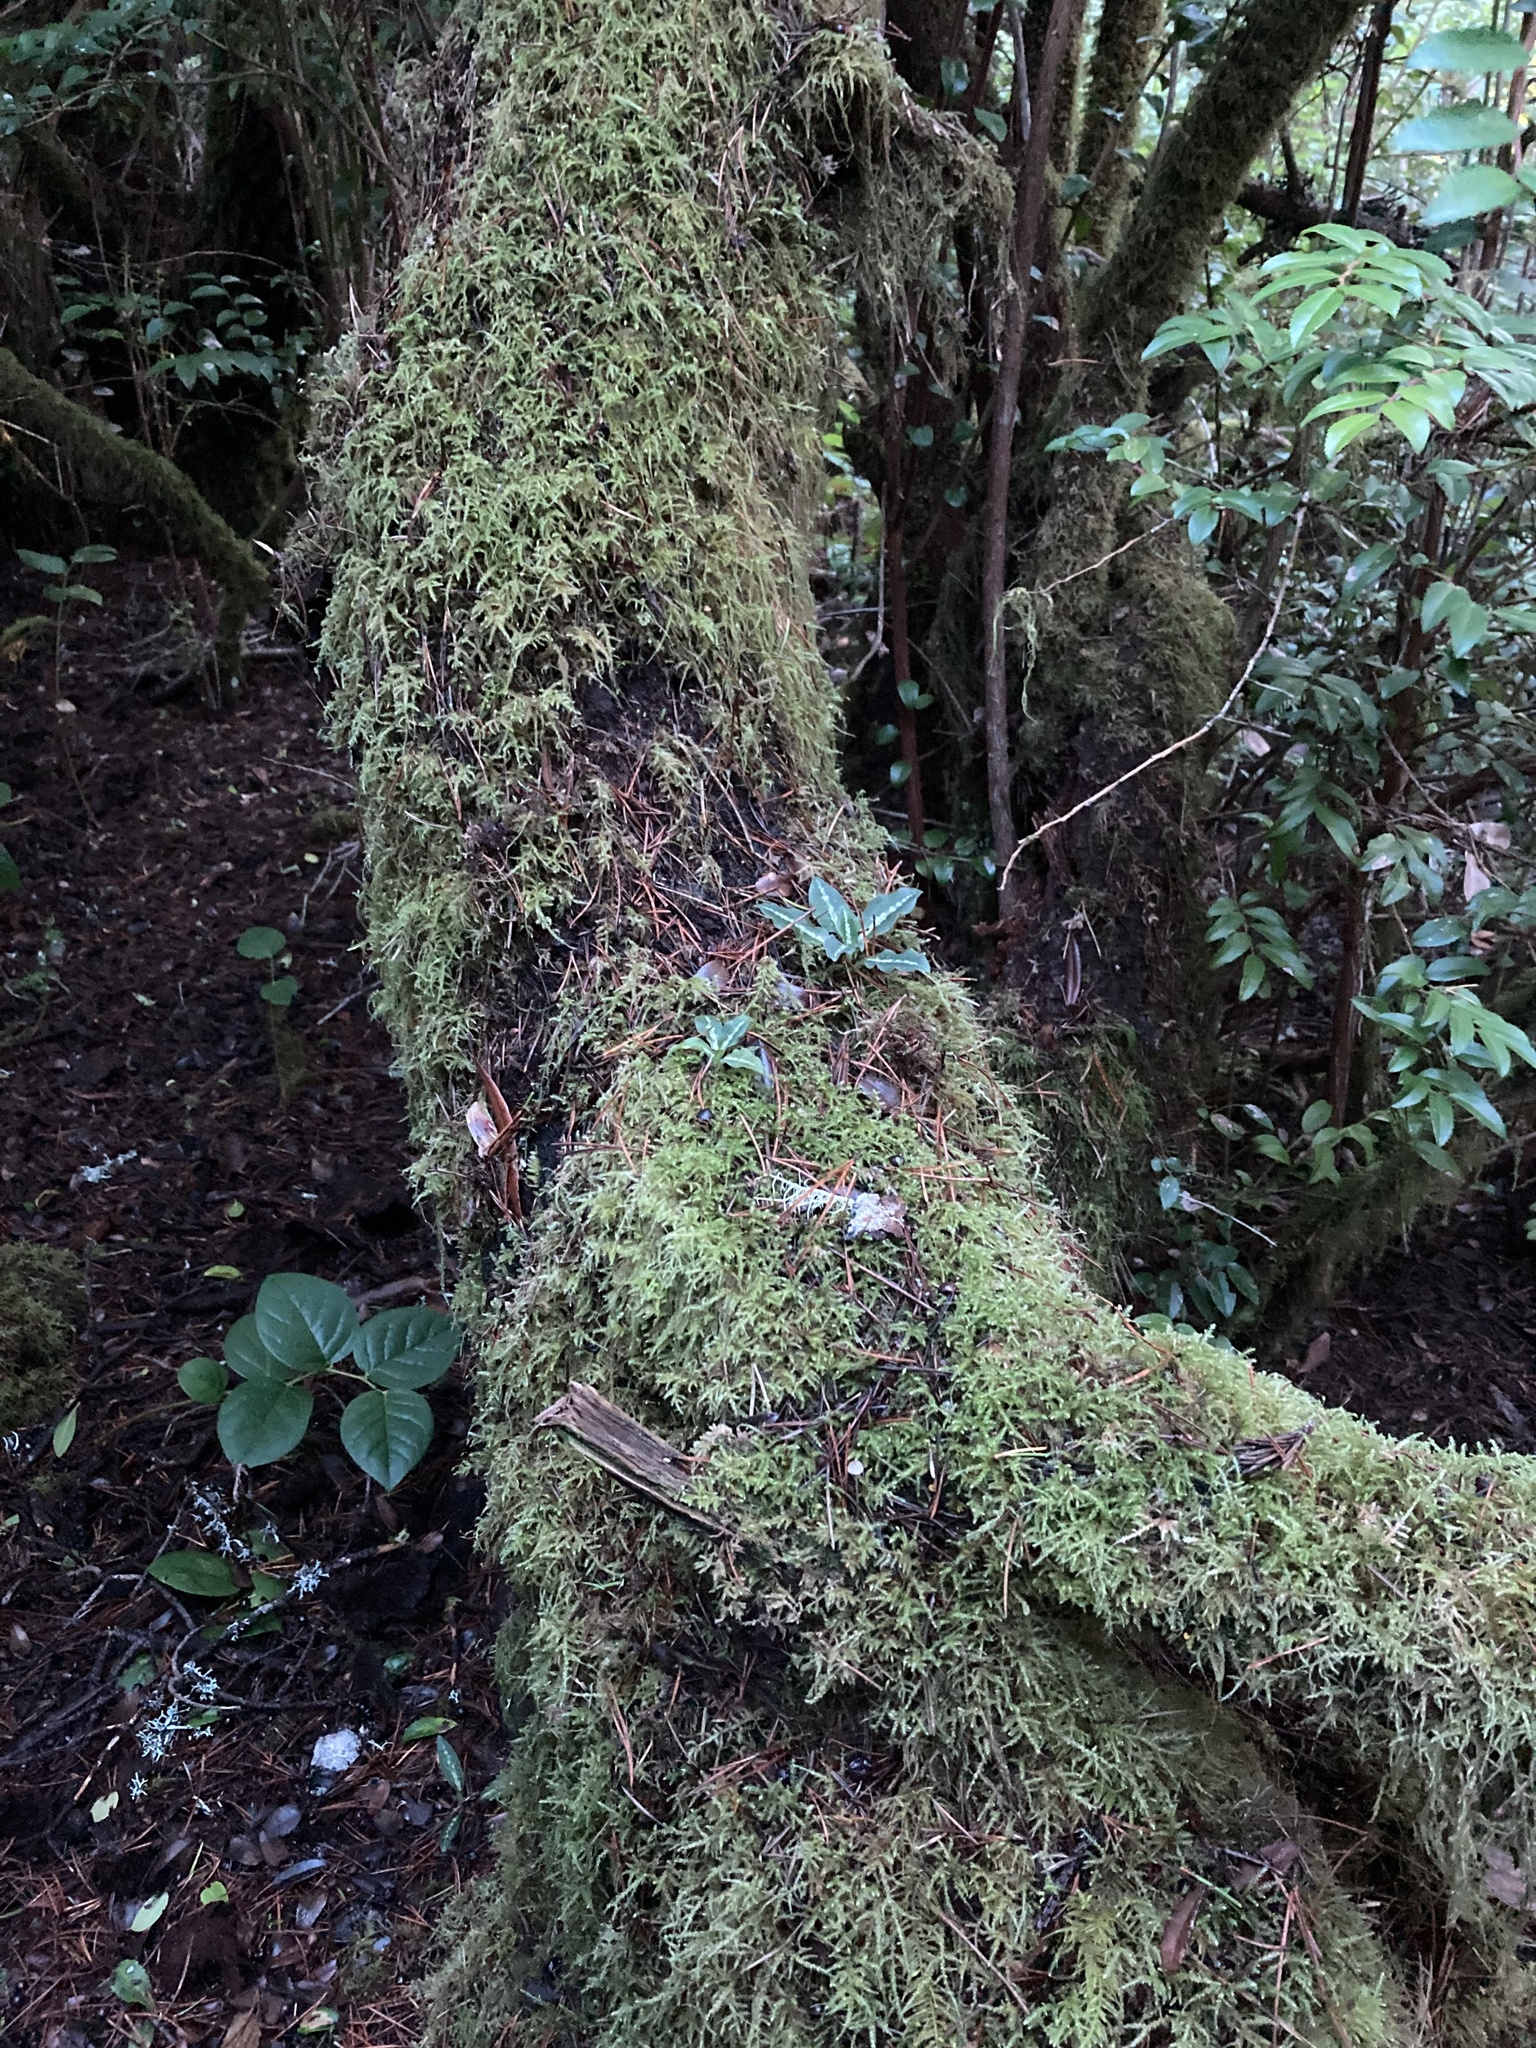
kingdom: Plantae
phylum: Tracheophyta
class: Liliopsida
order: Asparagales
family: Orchidaceae
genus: Goodyera
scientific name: Goodyera oblongifolia
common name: Giant rattlesnake-plantain
